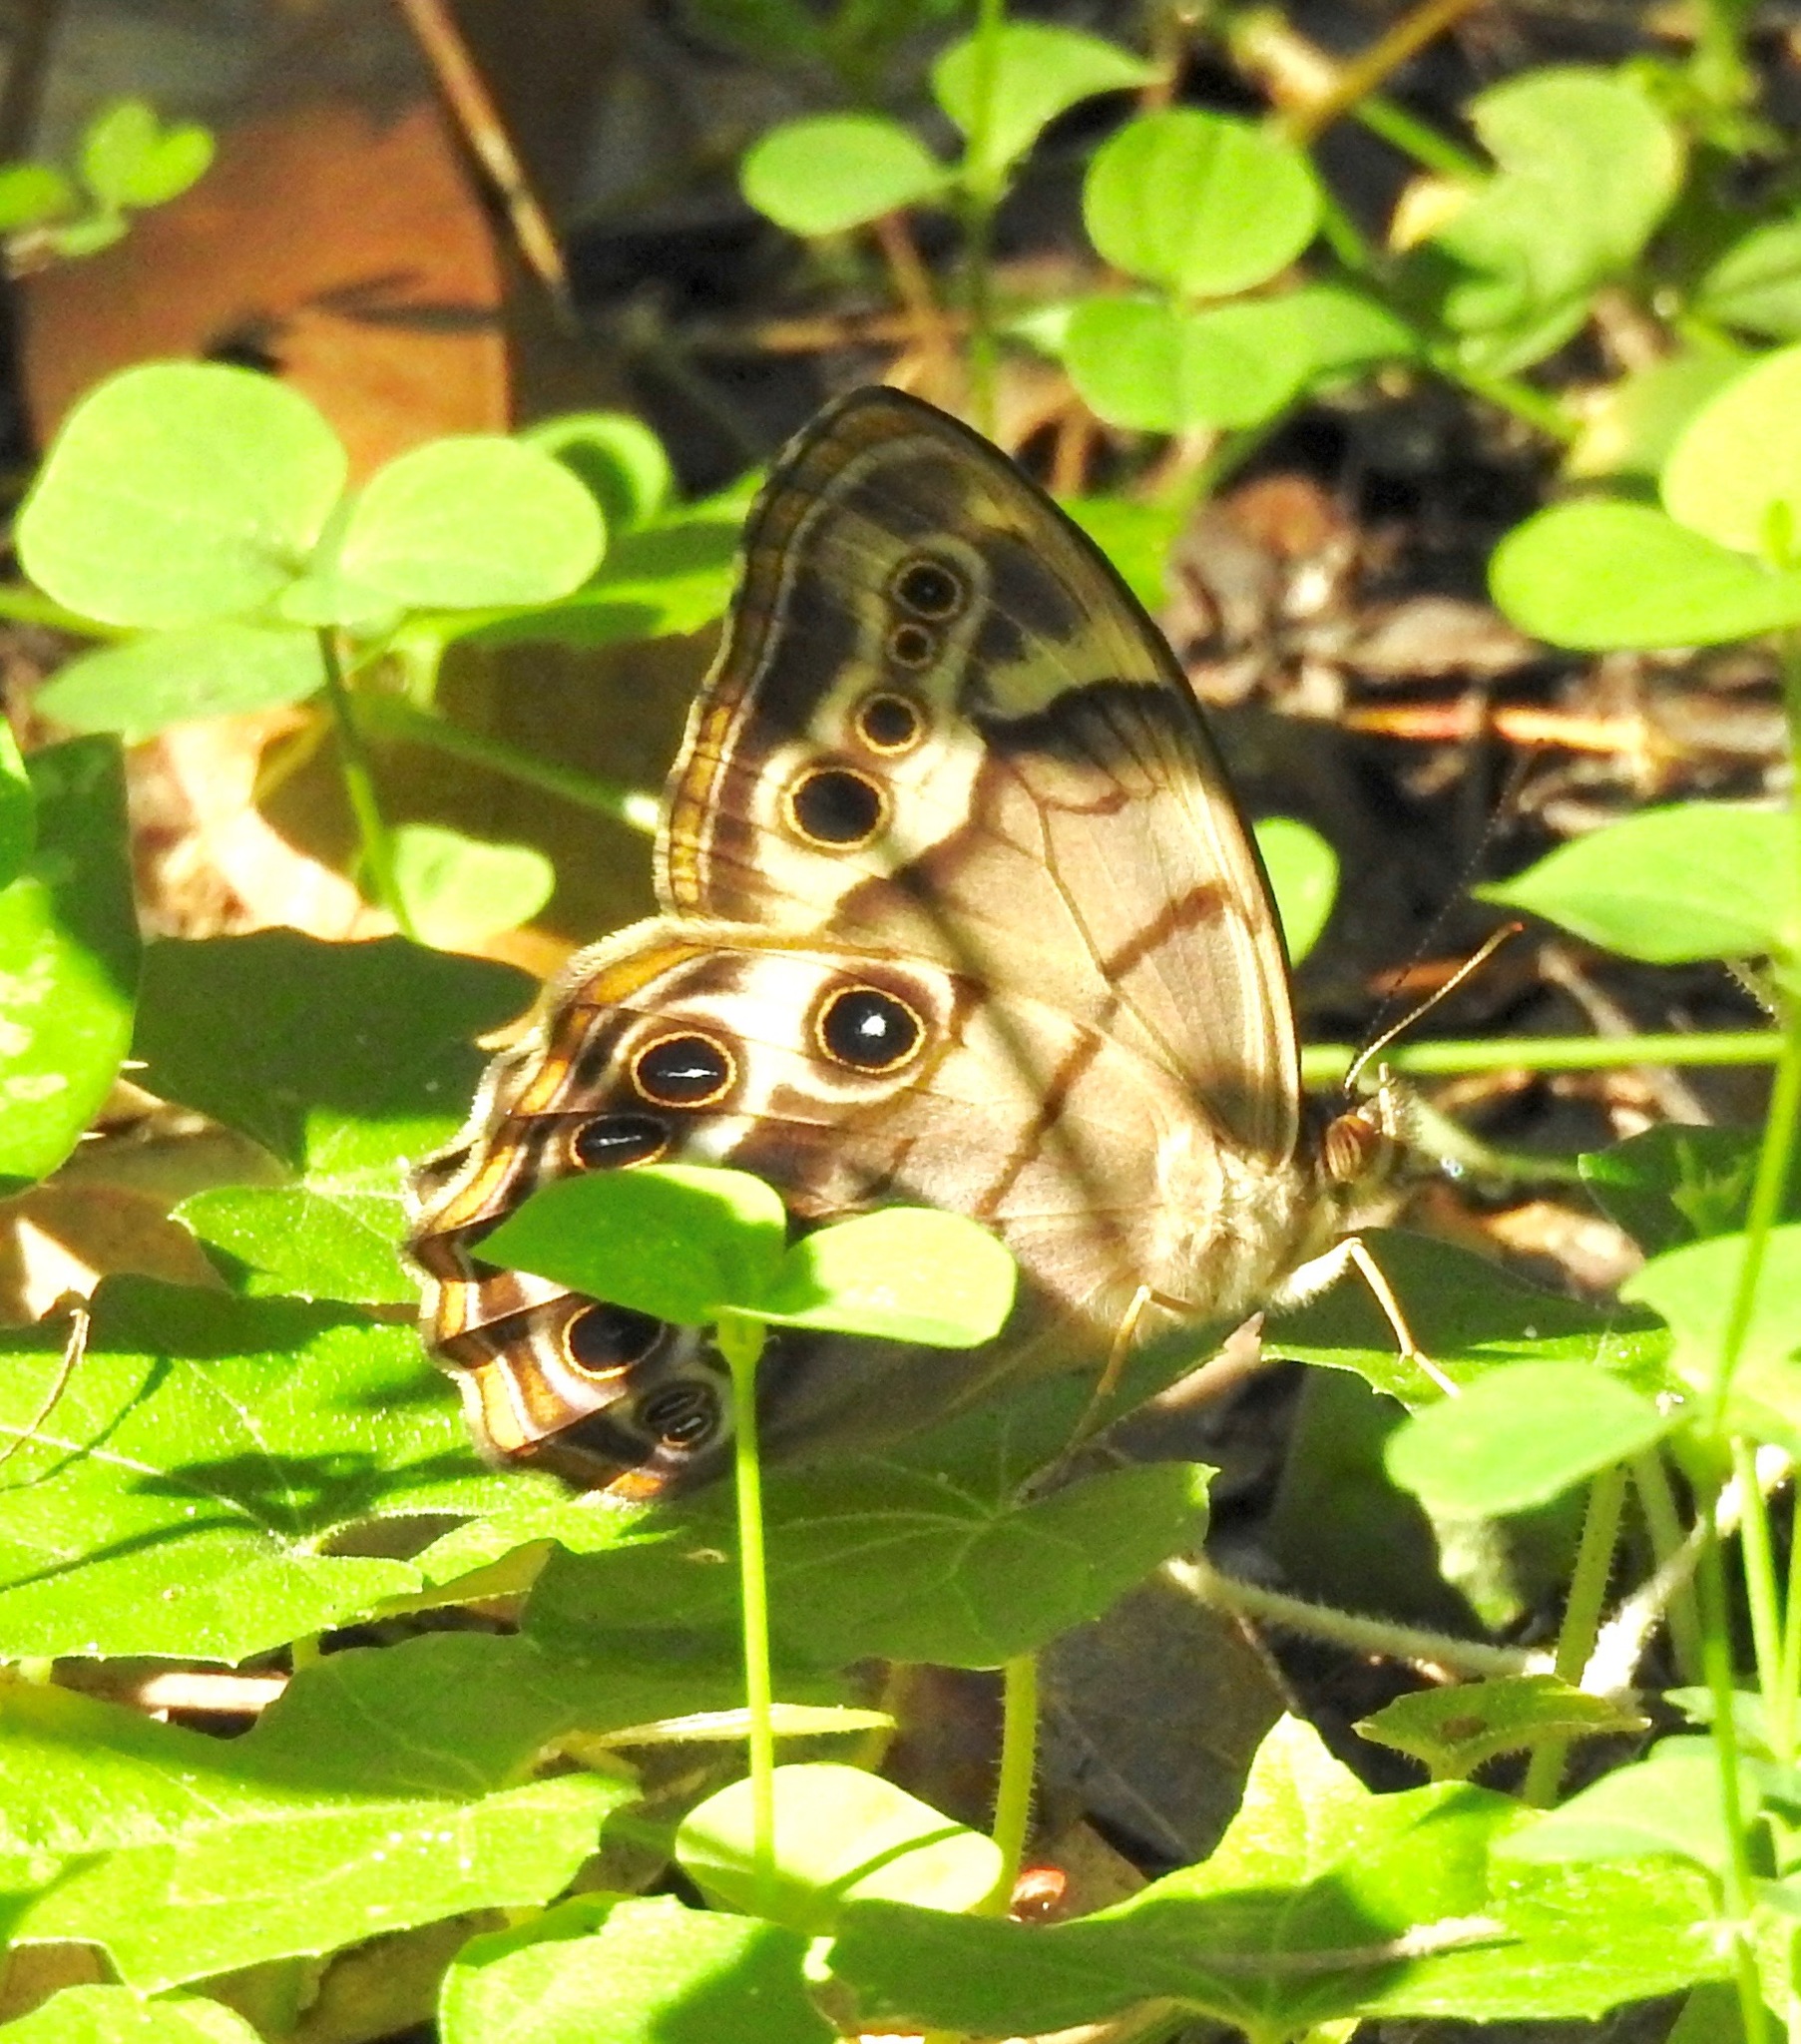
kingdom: Animalia
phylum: Arthropoda
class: Insecta
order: Lepidoptera
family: Nymphalidae
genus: Enodia
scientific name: Enodia portlandia
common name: Southern pearly-eye
